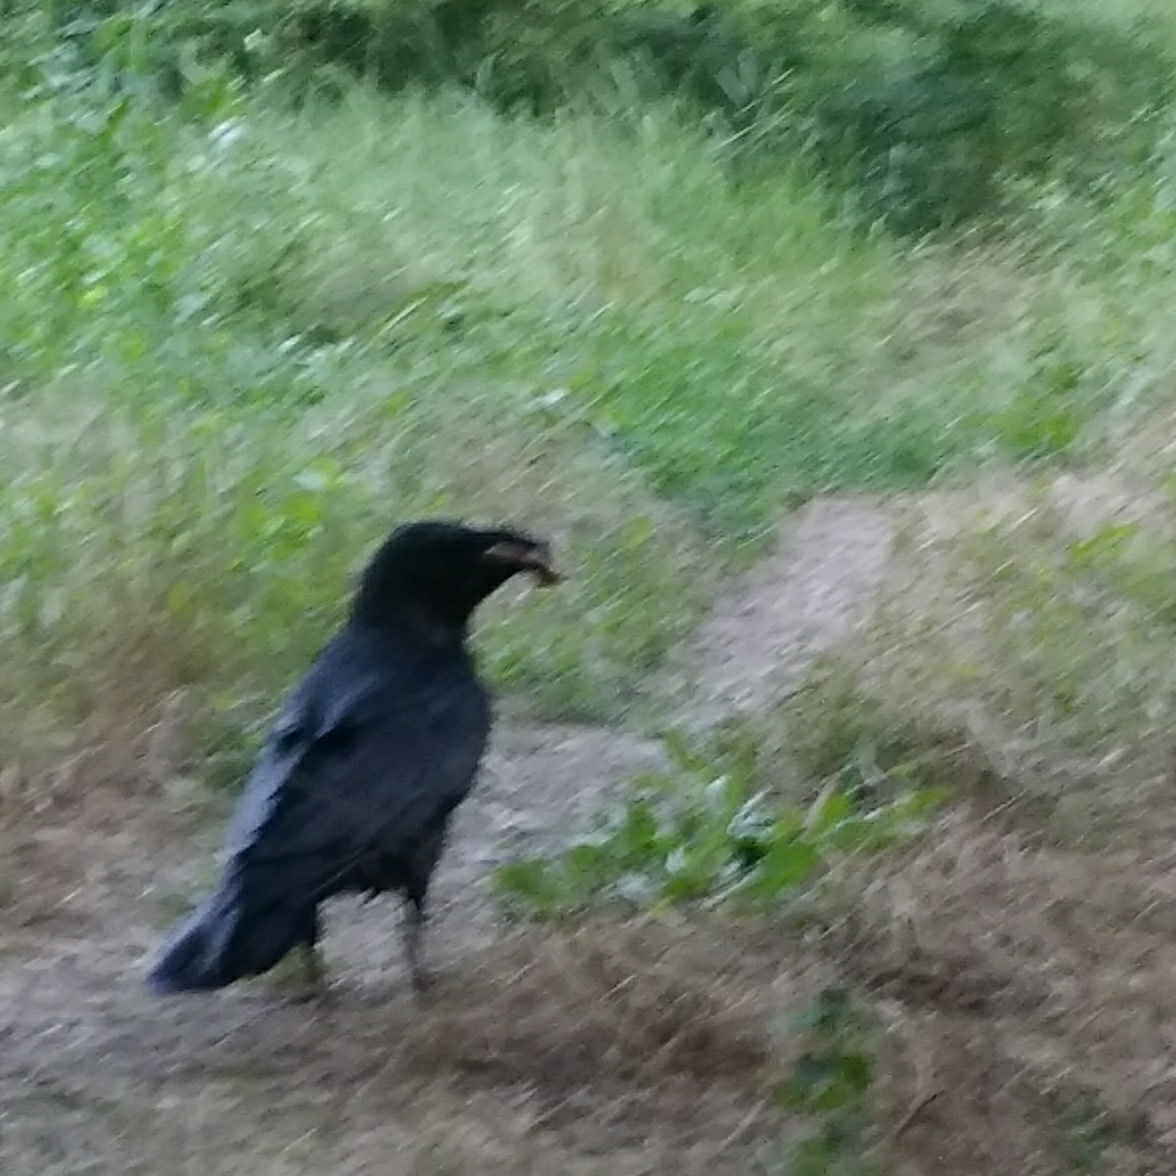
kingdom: Animalia
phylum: Chordata
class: Aves
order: Passeriformes
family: Corvidae
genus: Corvus
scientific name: Corvus corax
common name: Common raven
